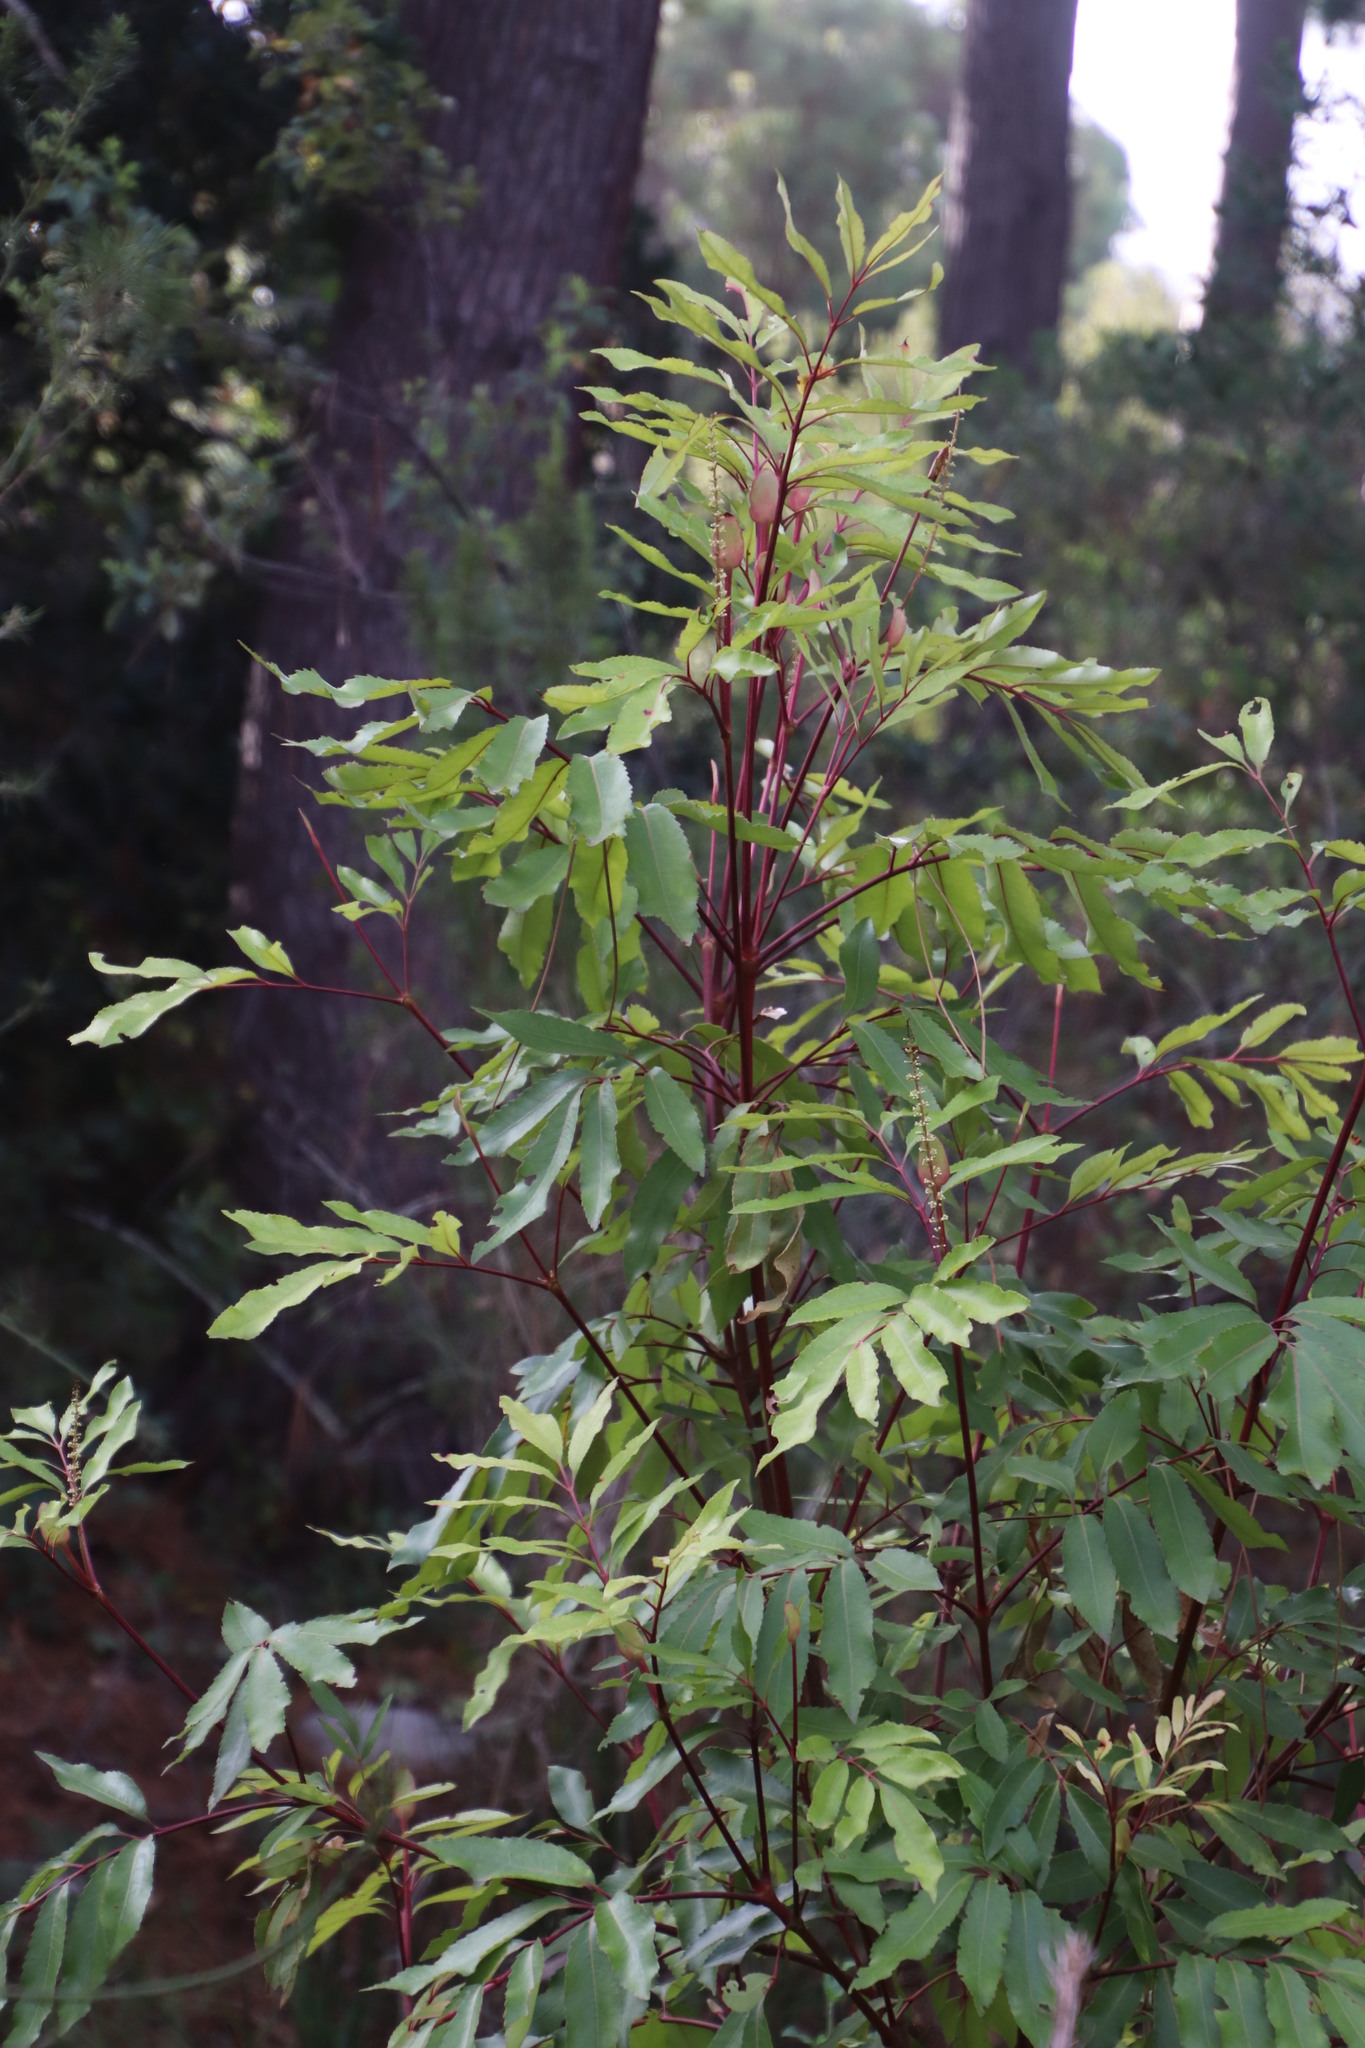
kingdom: Plantae
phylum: Tracheophyta
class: Magnoliopsida
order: Oxalidales
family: Cunoniaceae
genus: Cunonia
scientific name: Cunonia capensis
